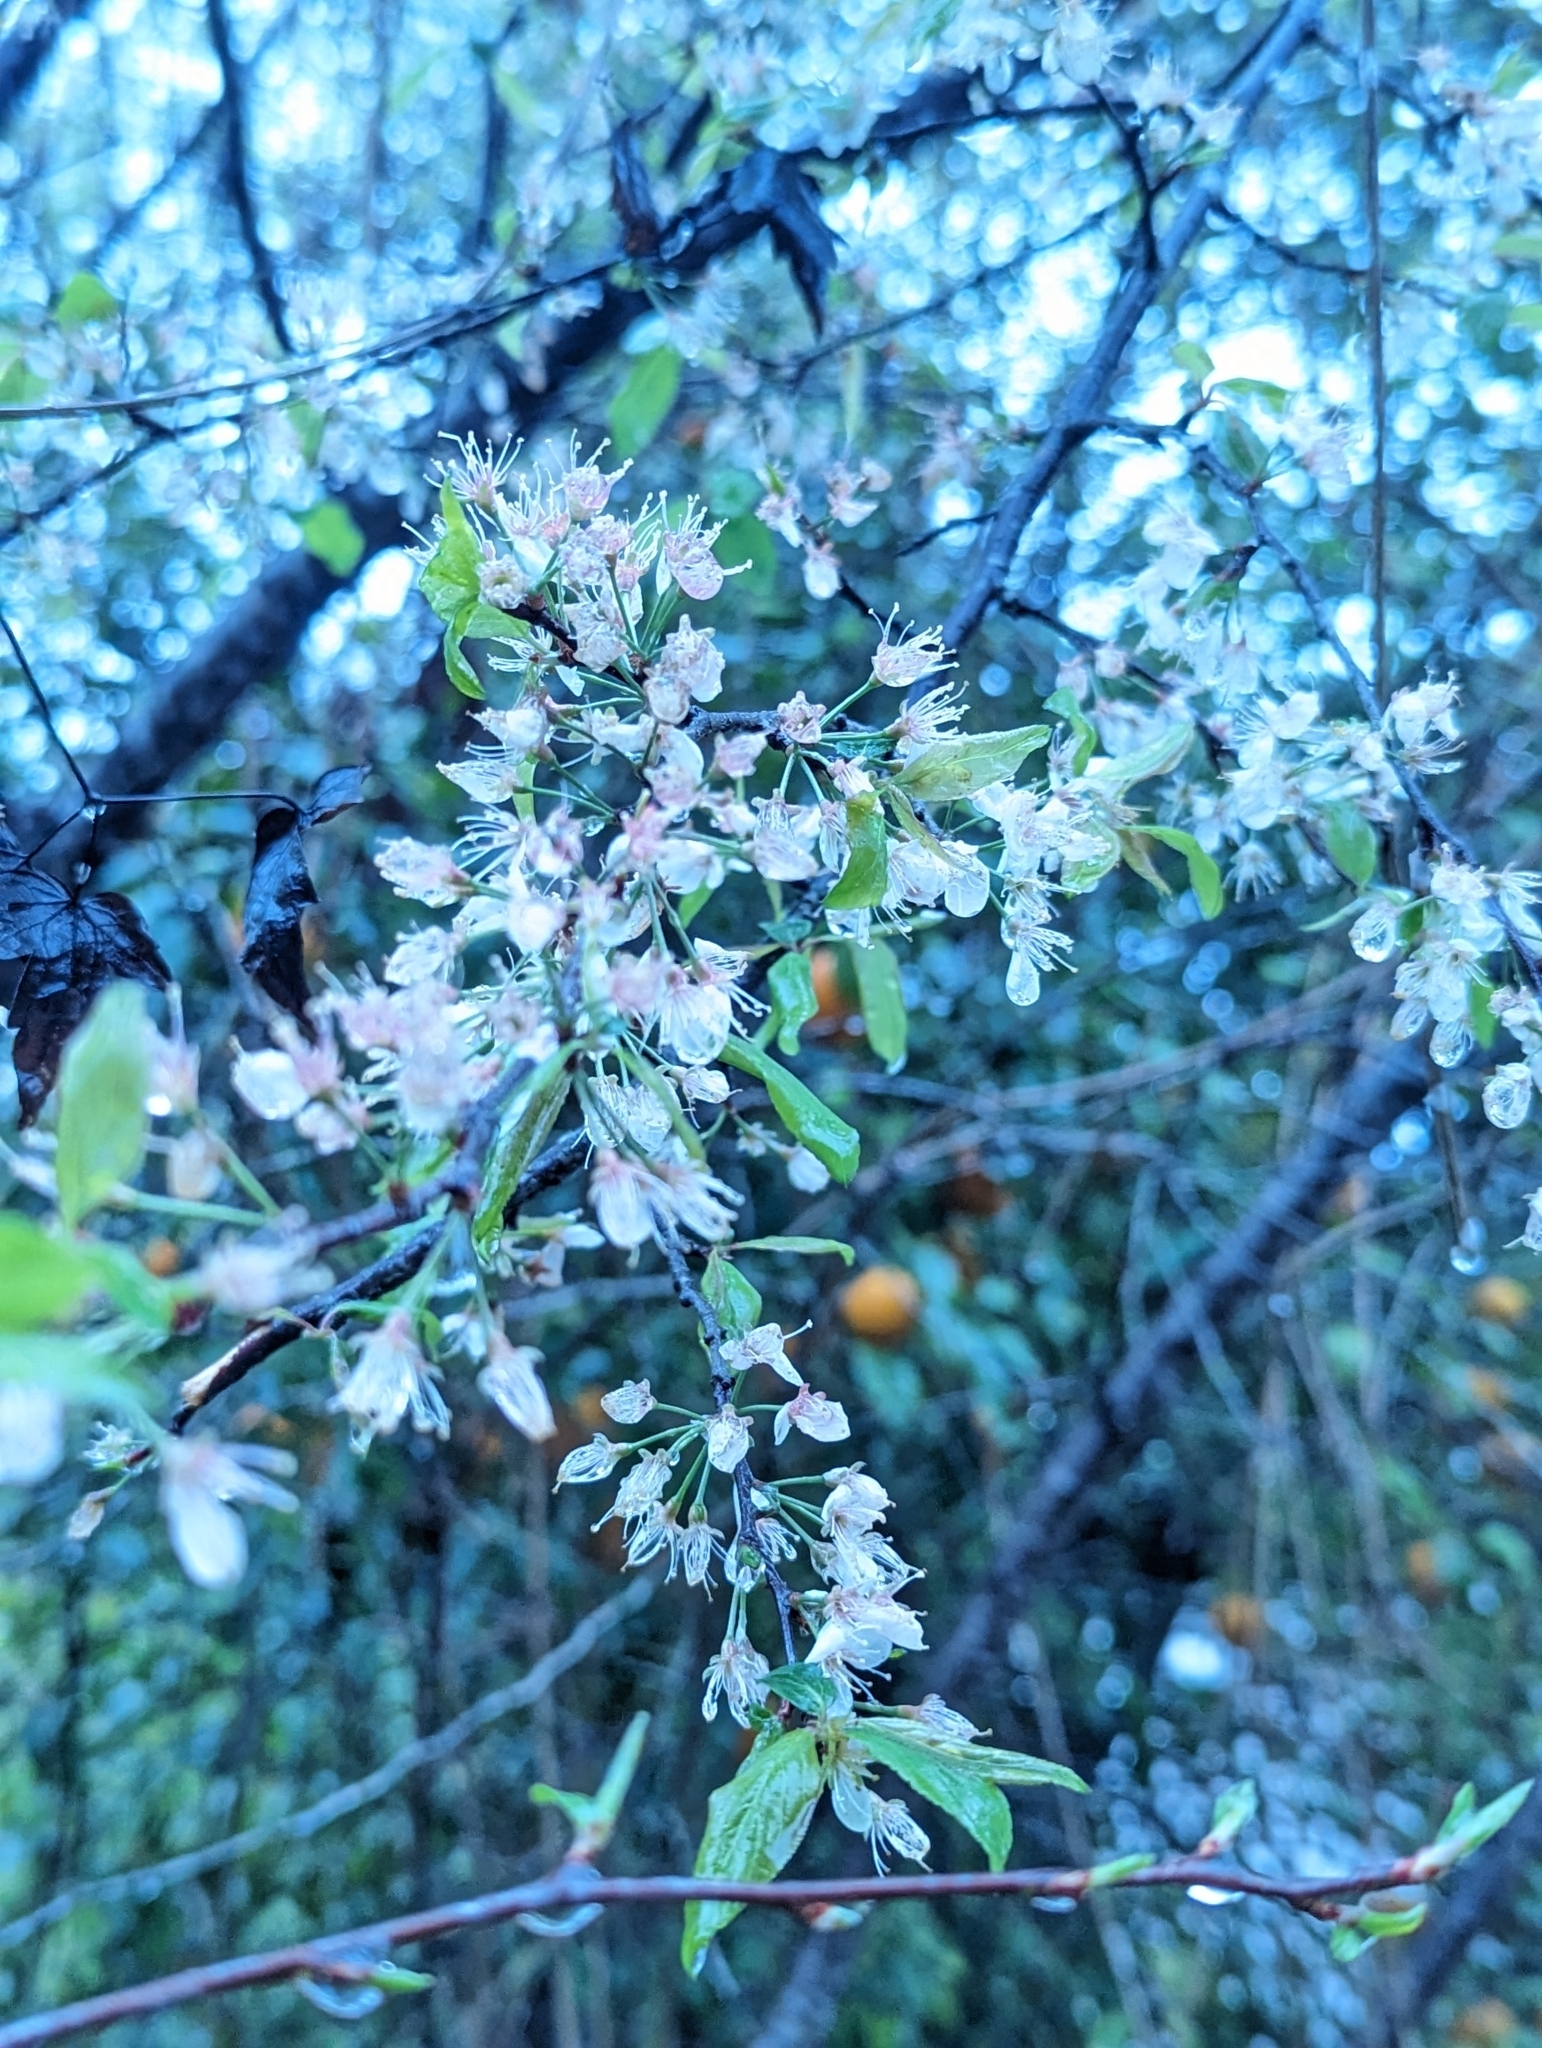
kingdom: Plantae
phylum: Tracheophyta
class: Magnoliopsida
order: Rosales
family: Rosaceae
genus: Prunus
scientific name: Prunus umbellata
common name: Allegheny plum
